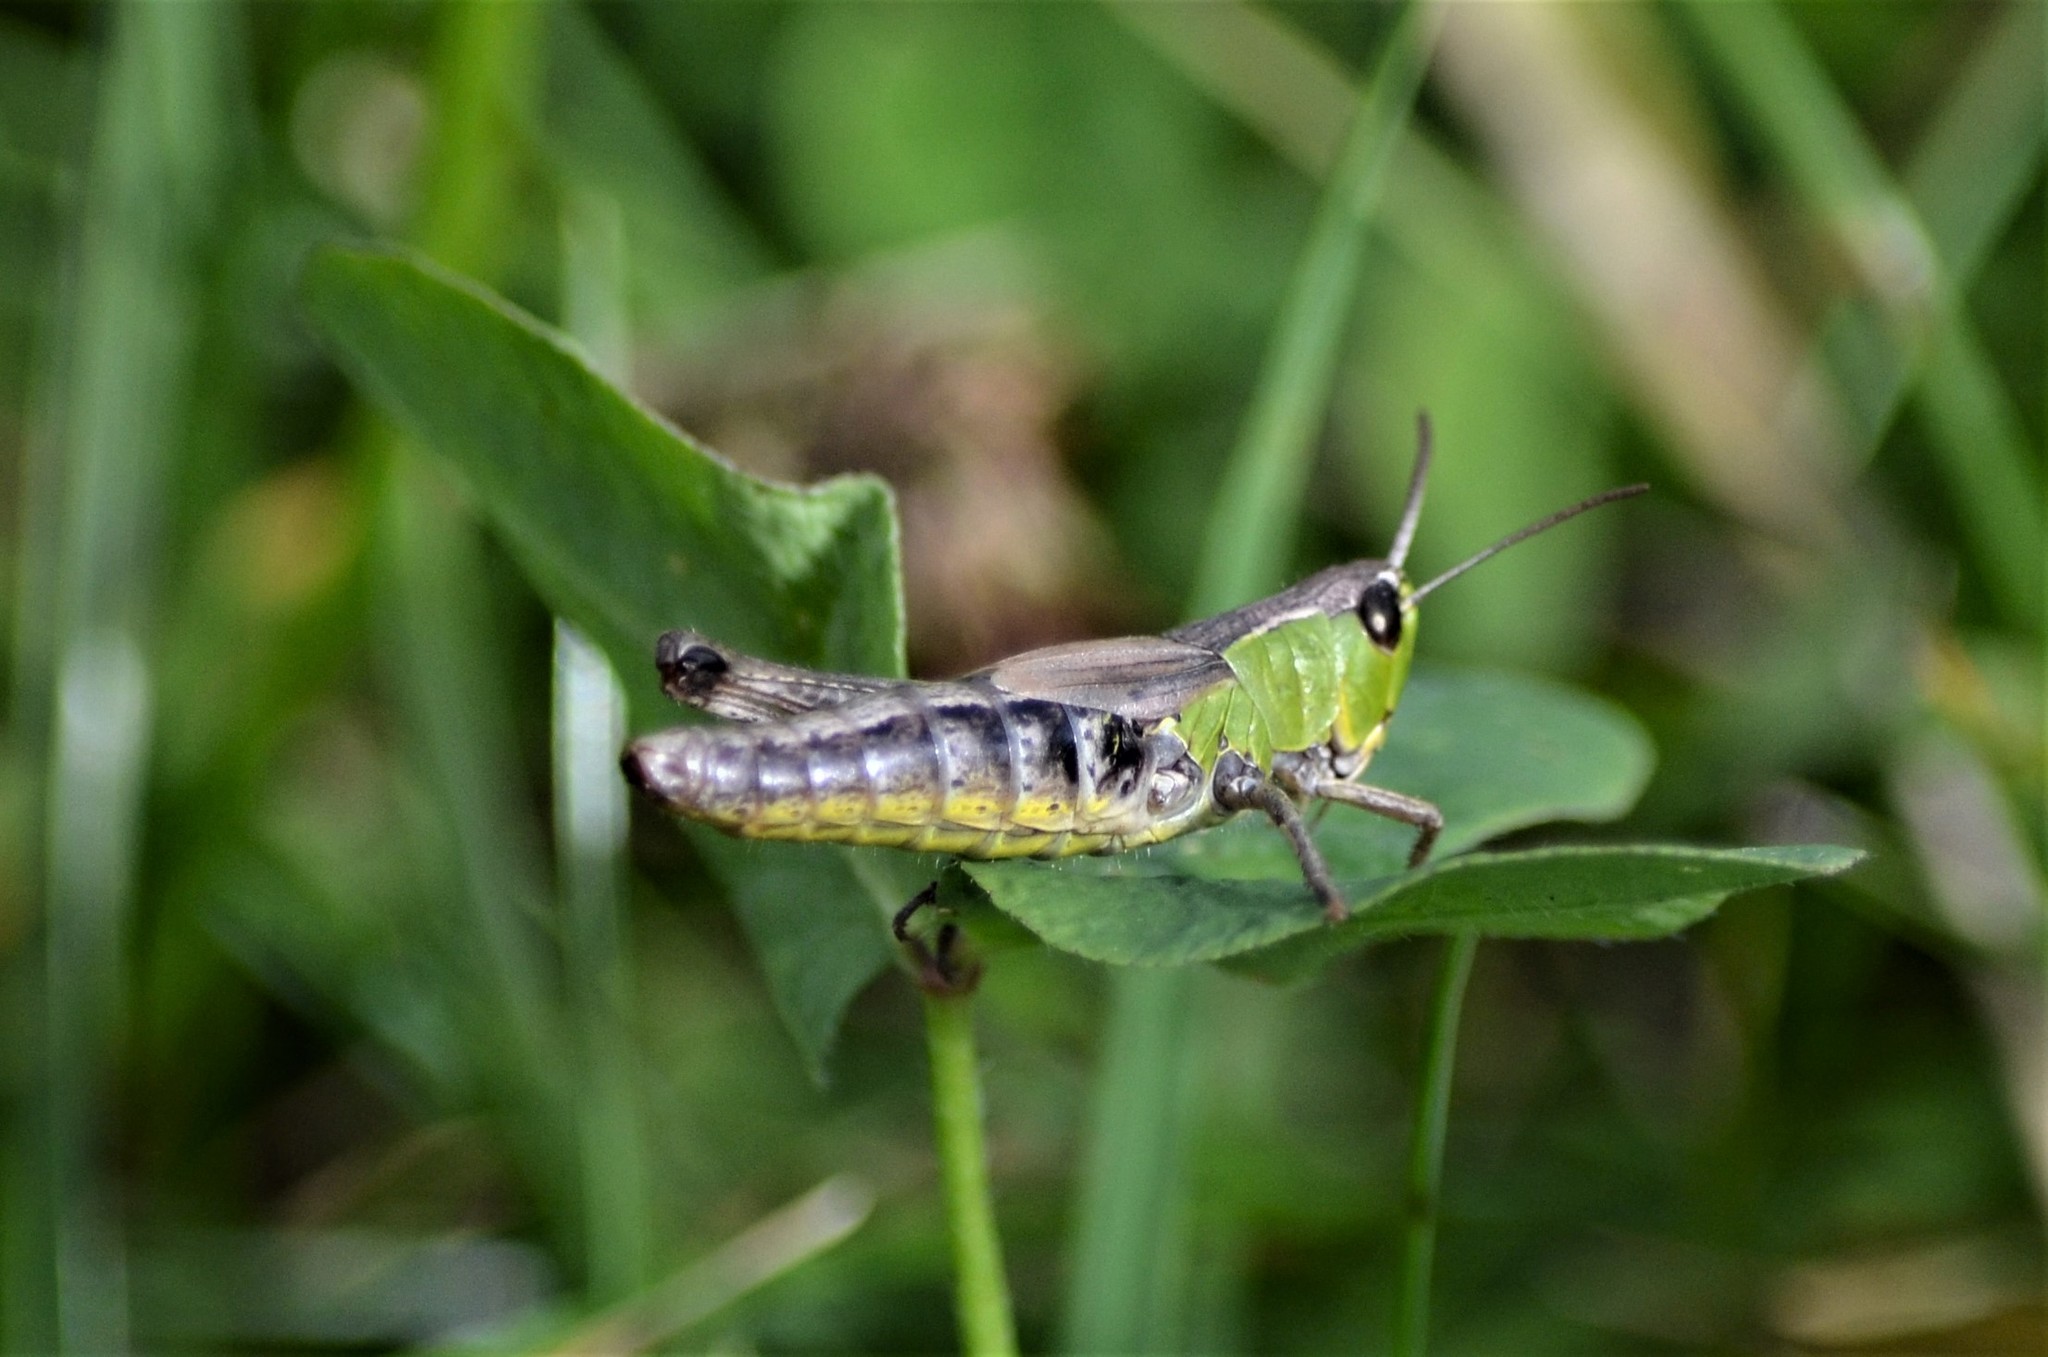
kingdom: Animalia
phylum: Arthropoda
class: Insecta
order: Orthoptera
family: Acrididae
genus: Pseudochorthippus
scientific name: Pseudochorthippus parallelus
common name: Meadow grasshopper
